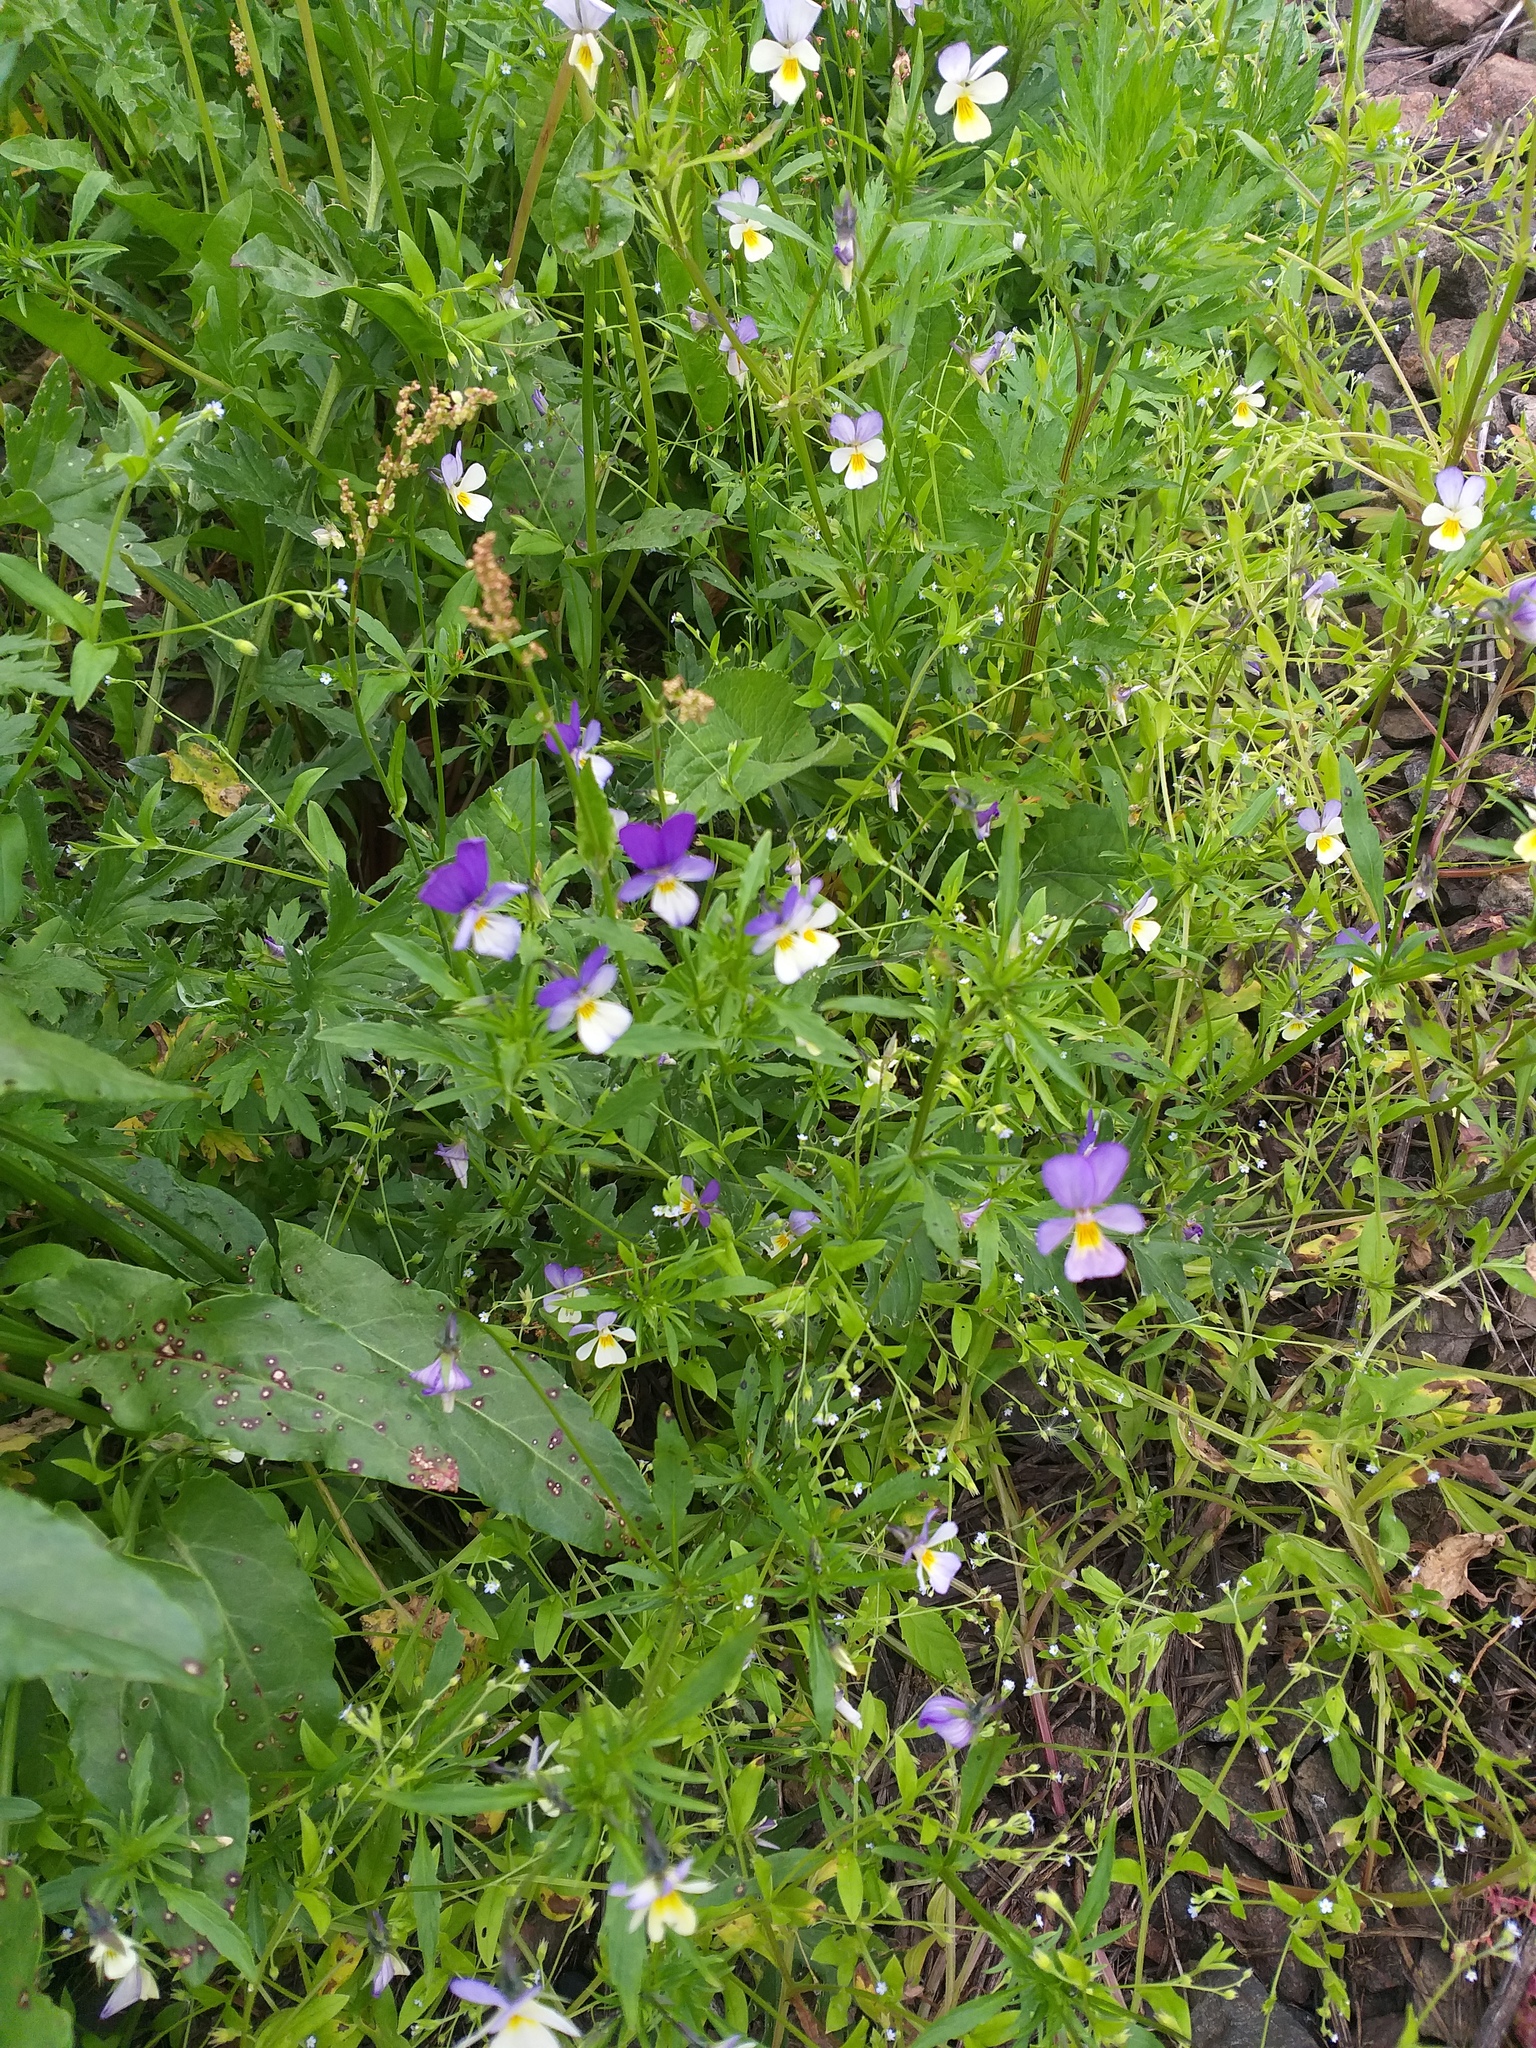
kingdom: Plantae
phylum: Tracheophyta
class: Magnoliopsida
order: Malpighiales
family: Violaceae
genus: Viola
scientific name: Viola tricolor
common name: Pansy
